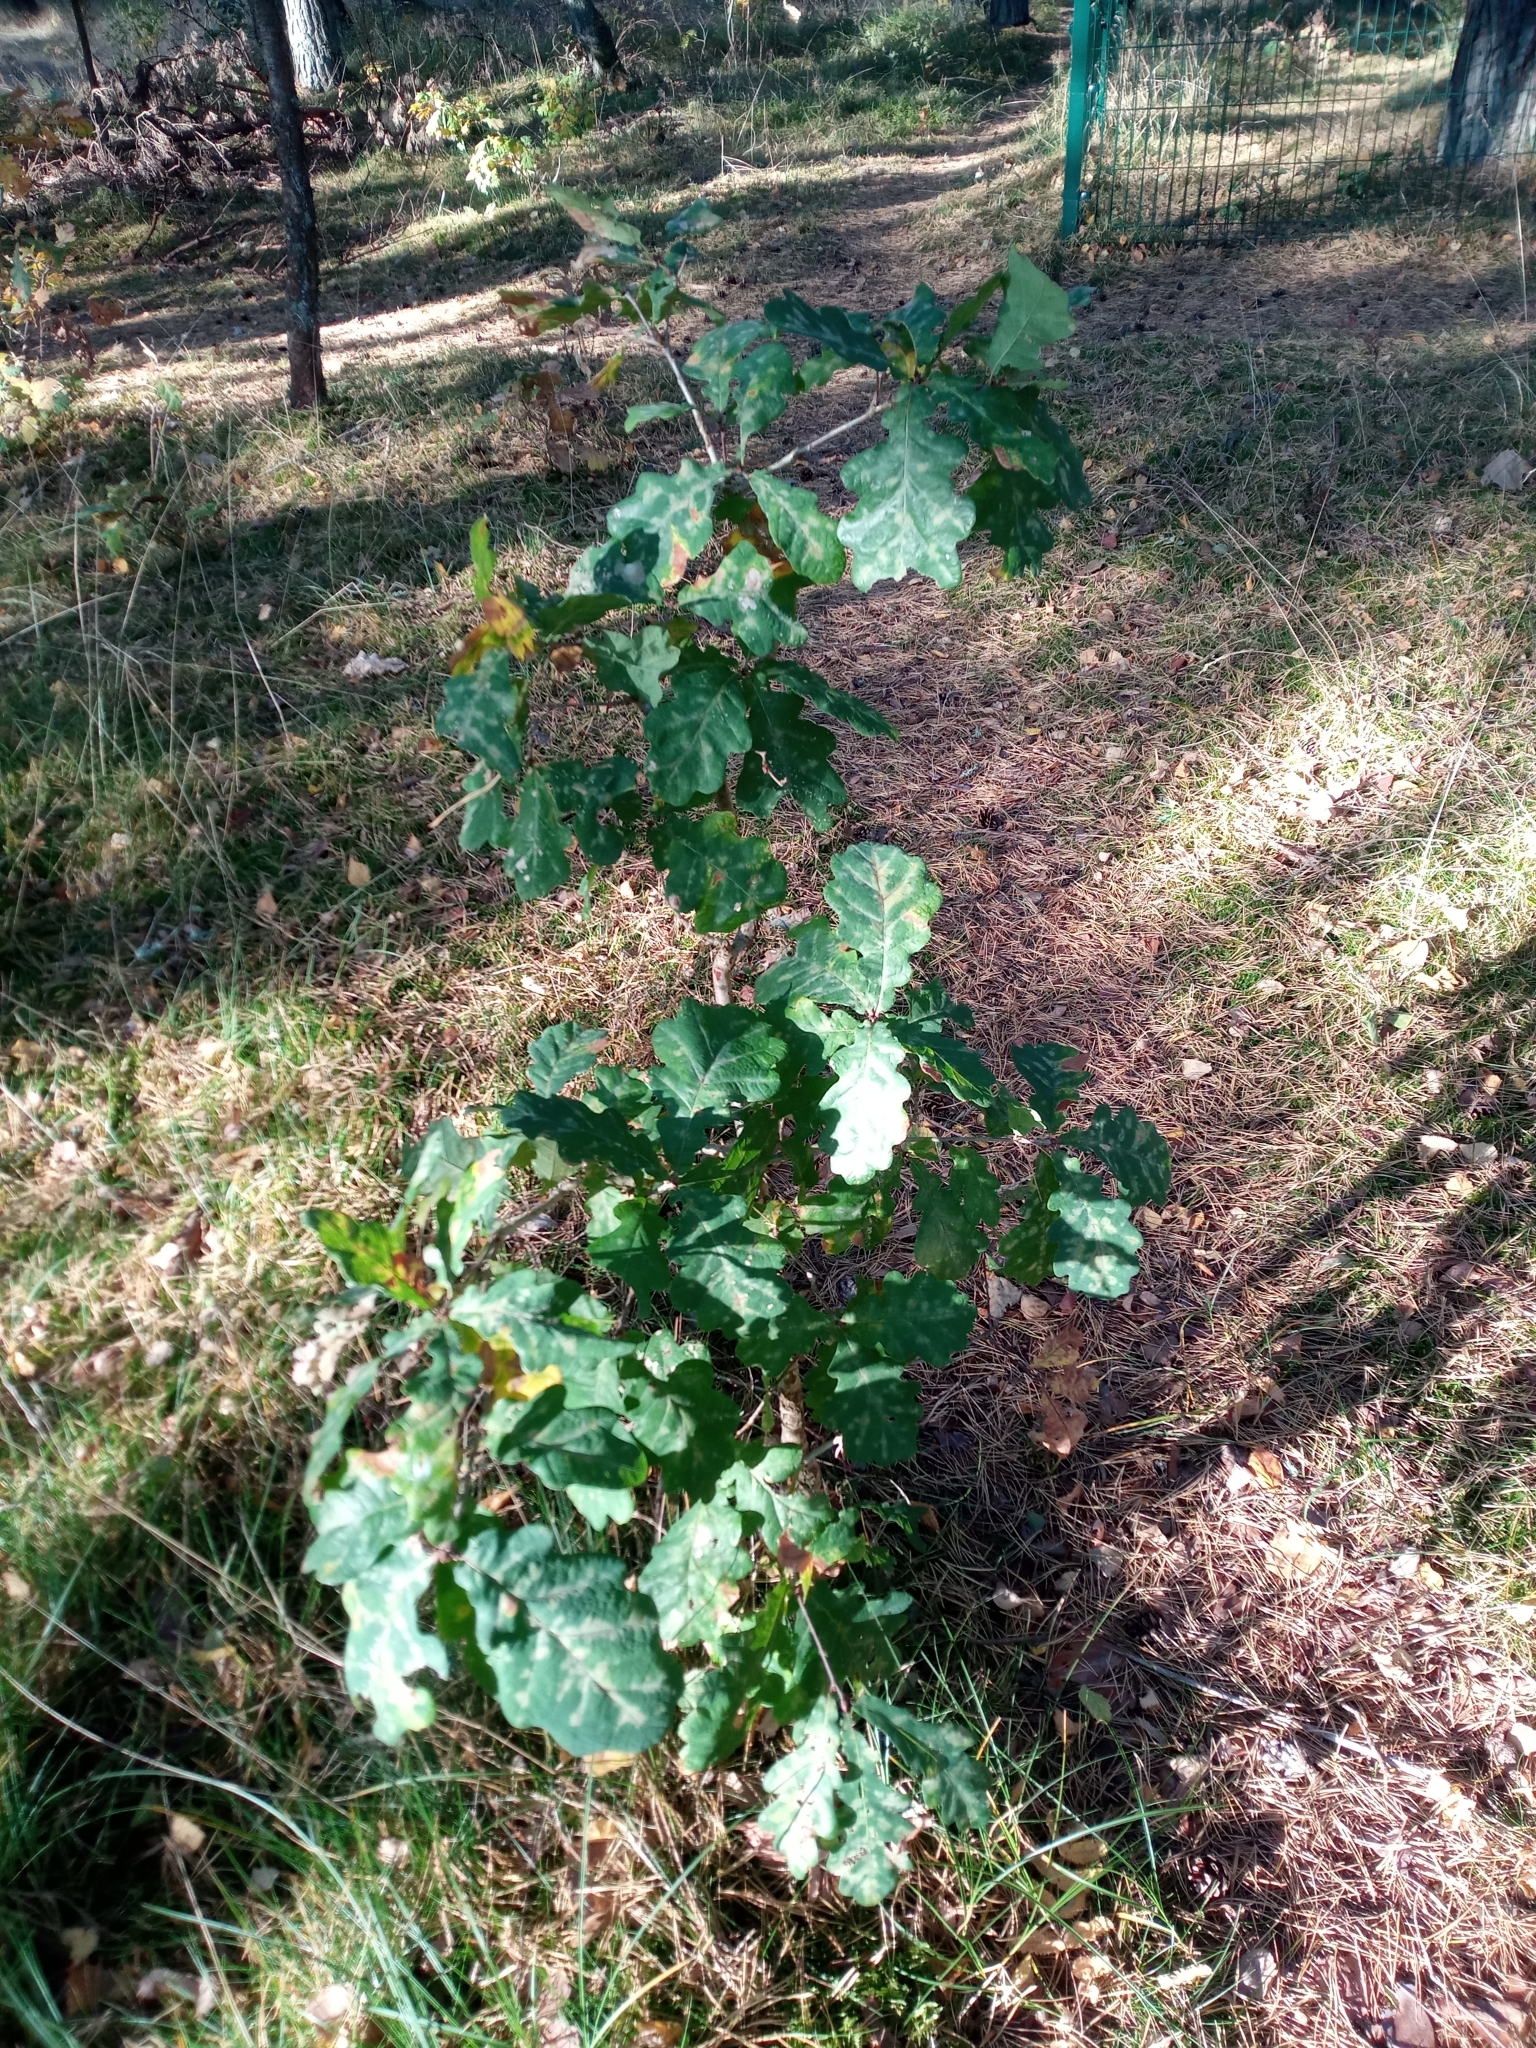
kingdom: Plantae
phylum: Tracheophyta
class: Magnoliopsida
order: Fagales
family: Fagaceae
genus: Quercus
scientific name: Quercus robur
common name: Pedunculate oak
